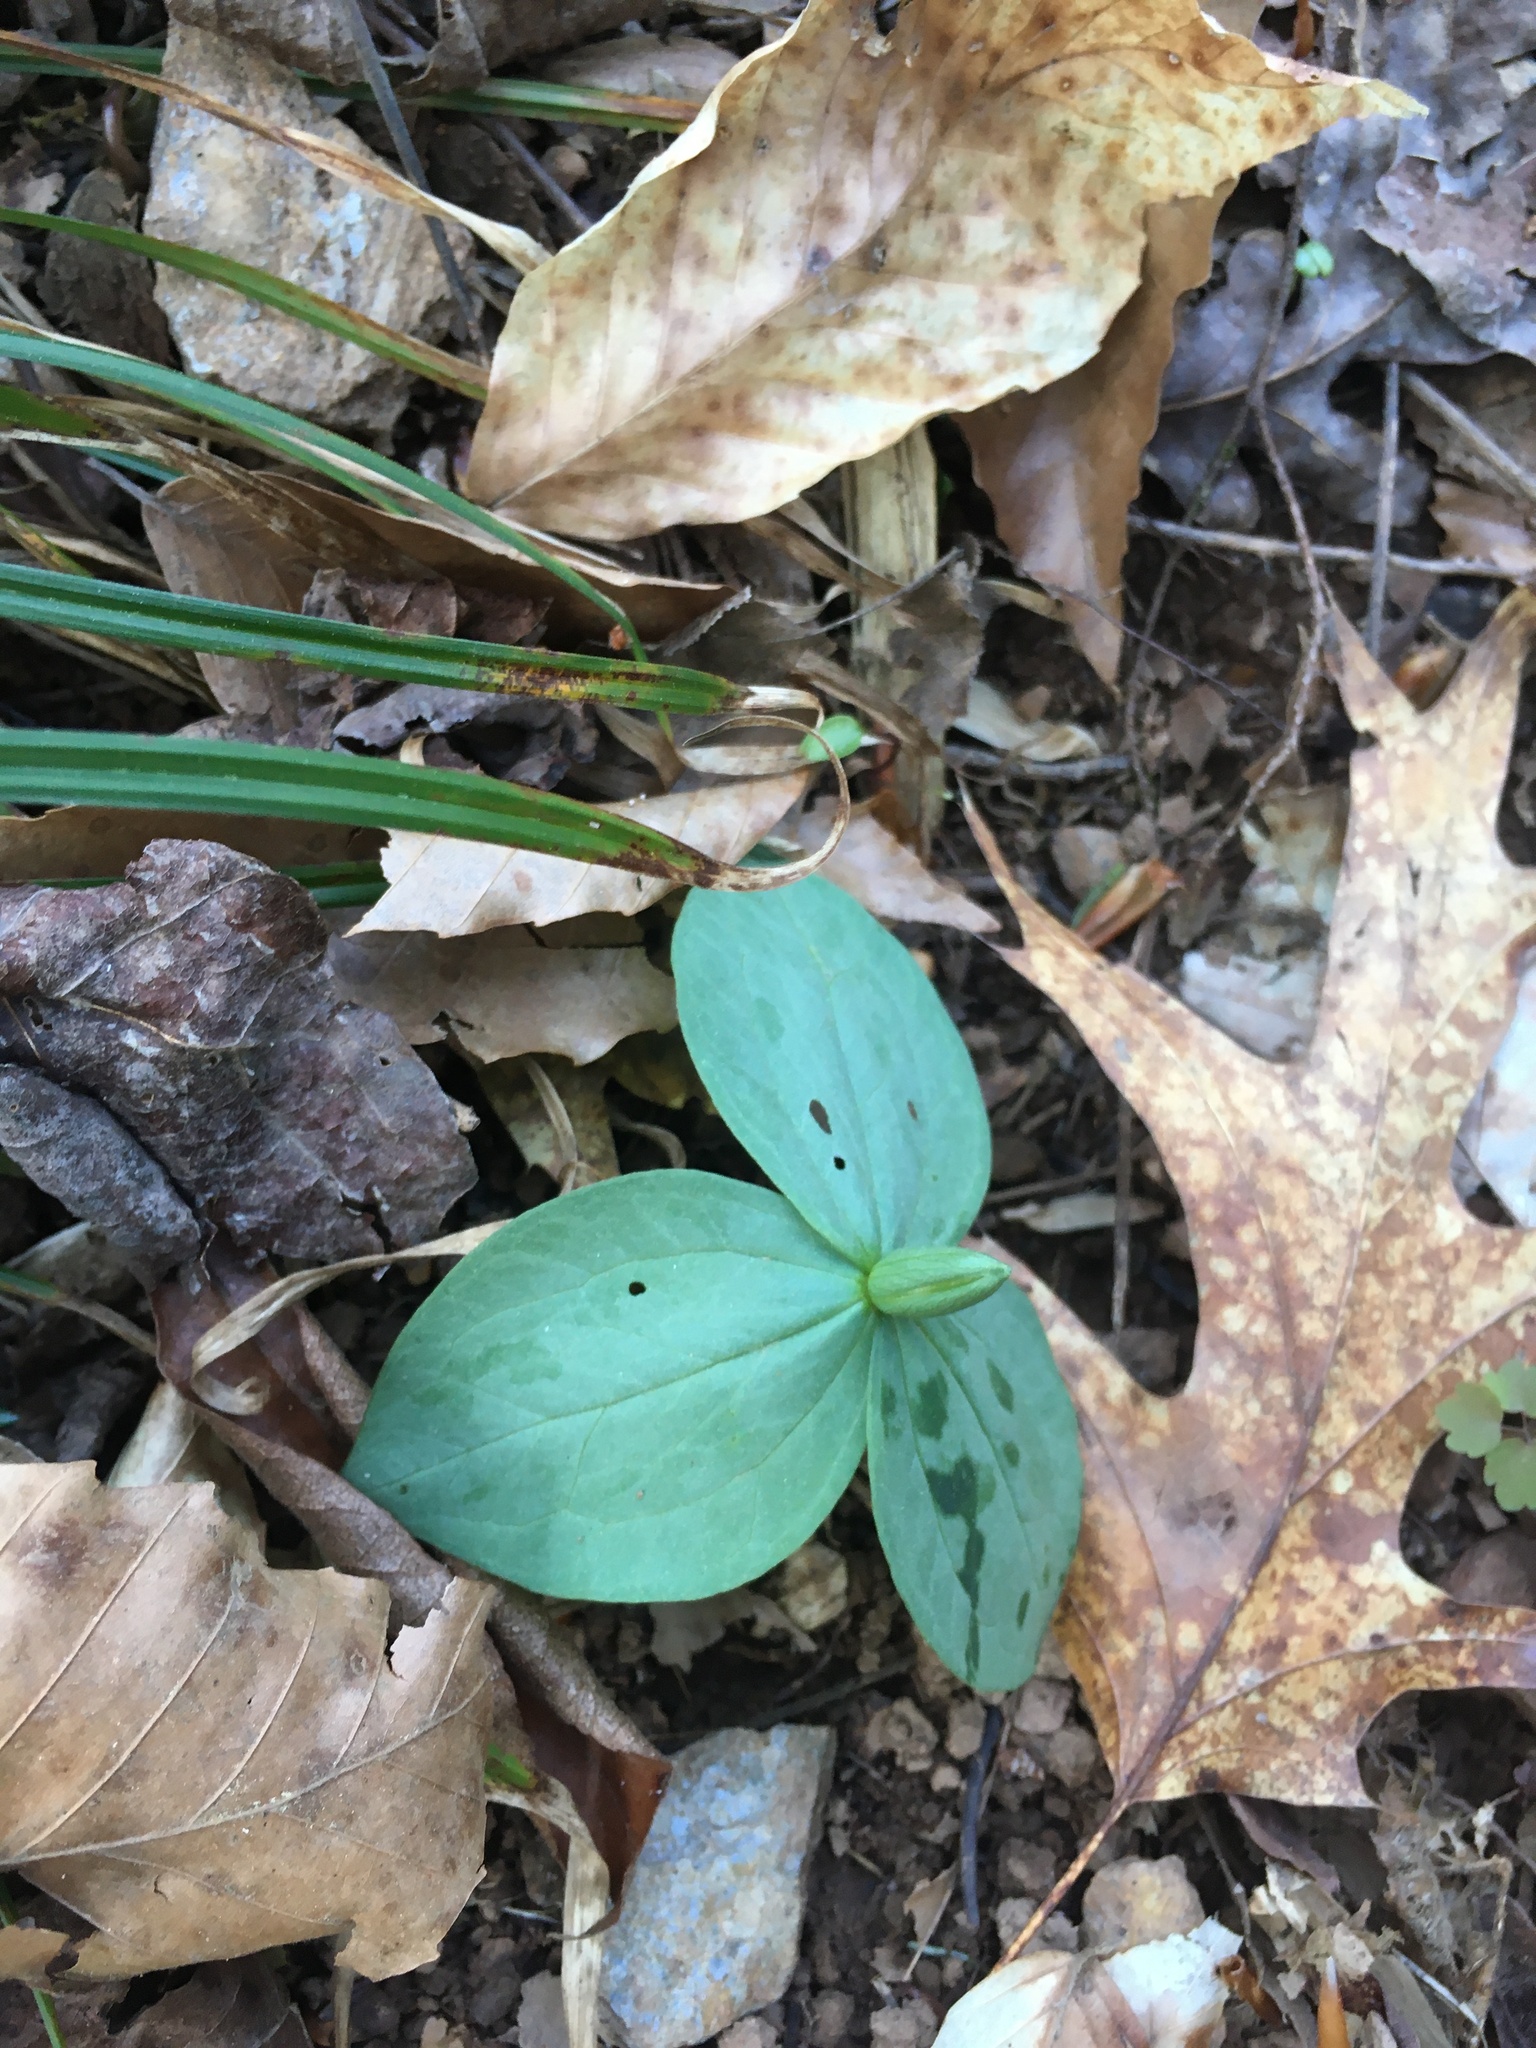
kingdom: Plantae
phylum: Tracheophyta
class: Liliopsida
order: Liliales
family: Melanthiaceae
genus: Trillium
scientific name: Trillium discolor
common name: Faded trillium
